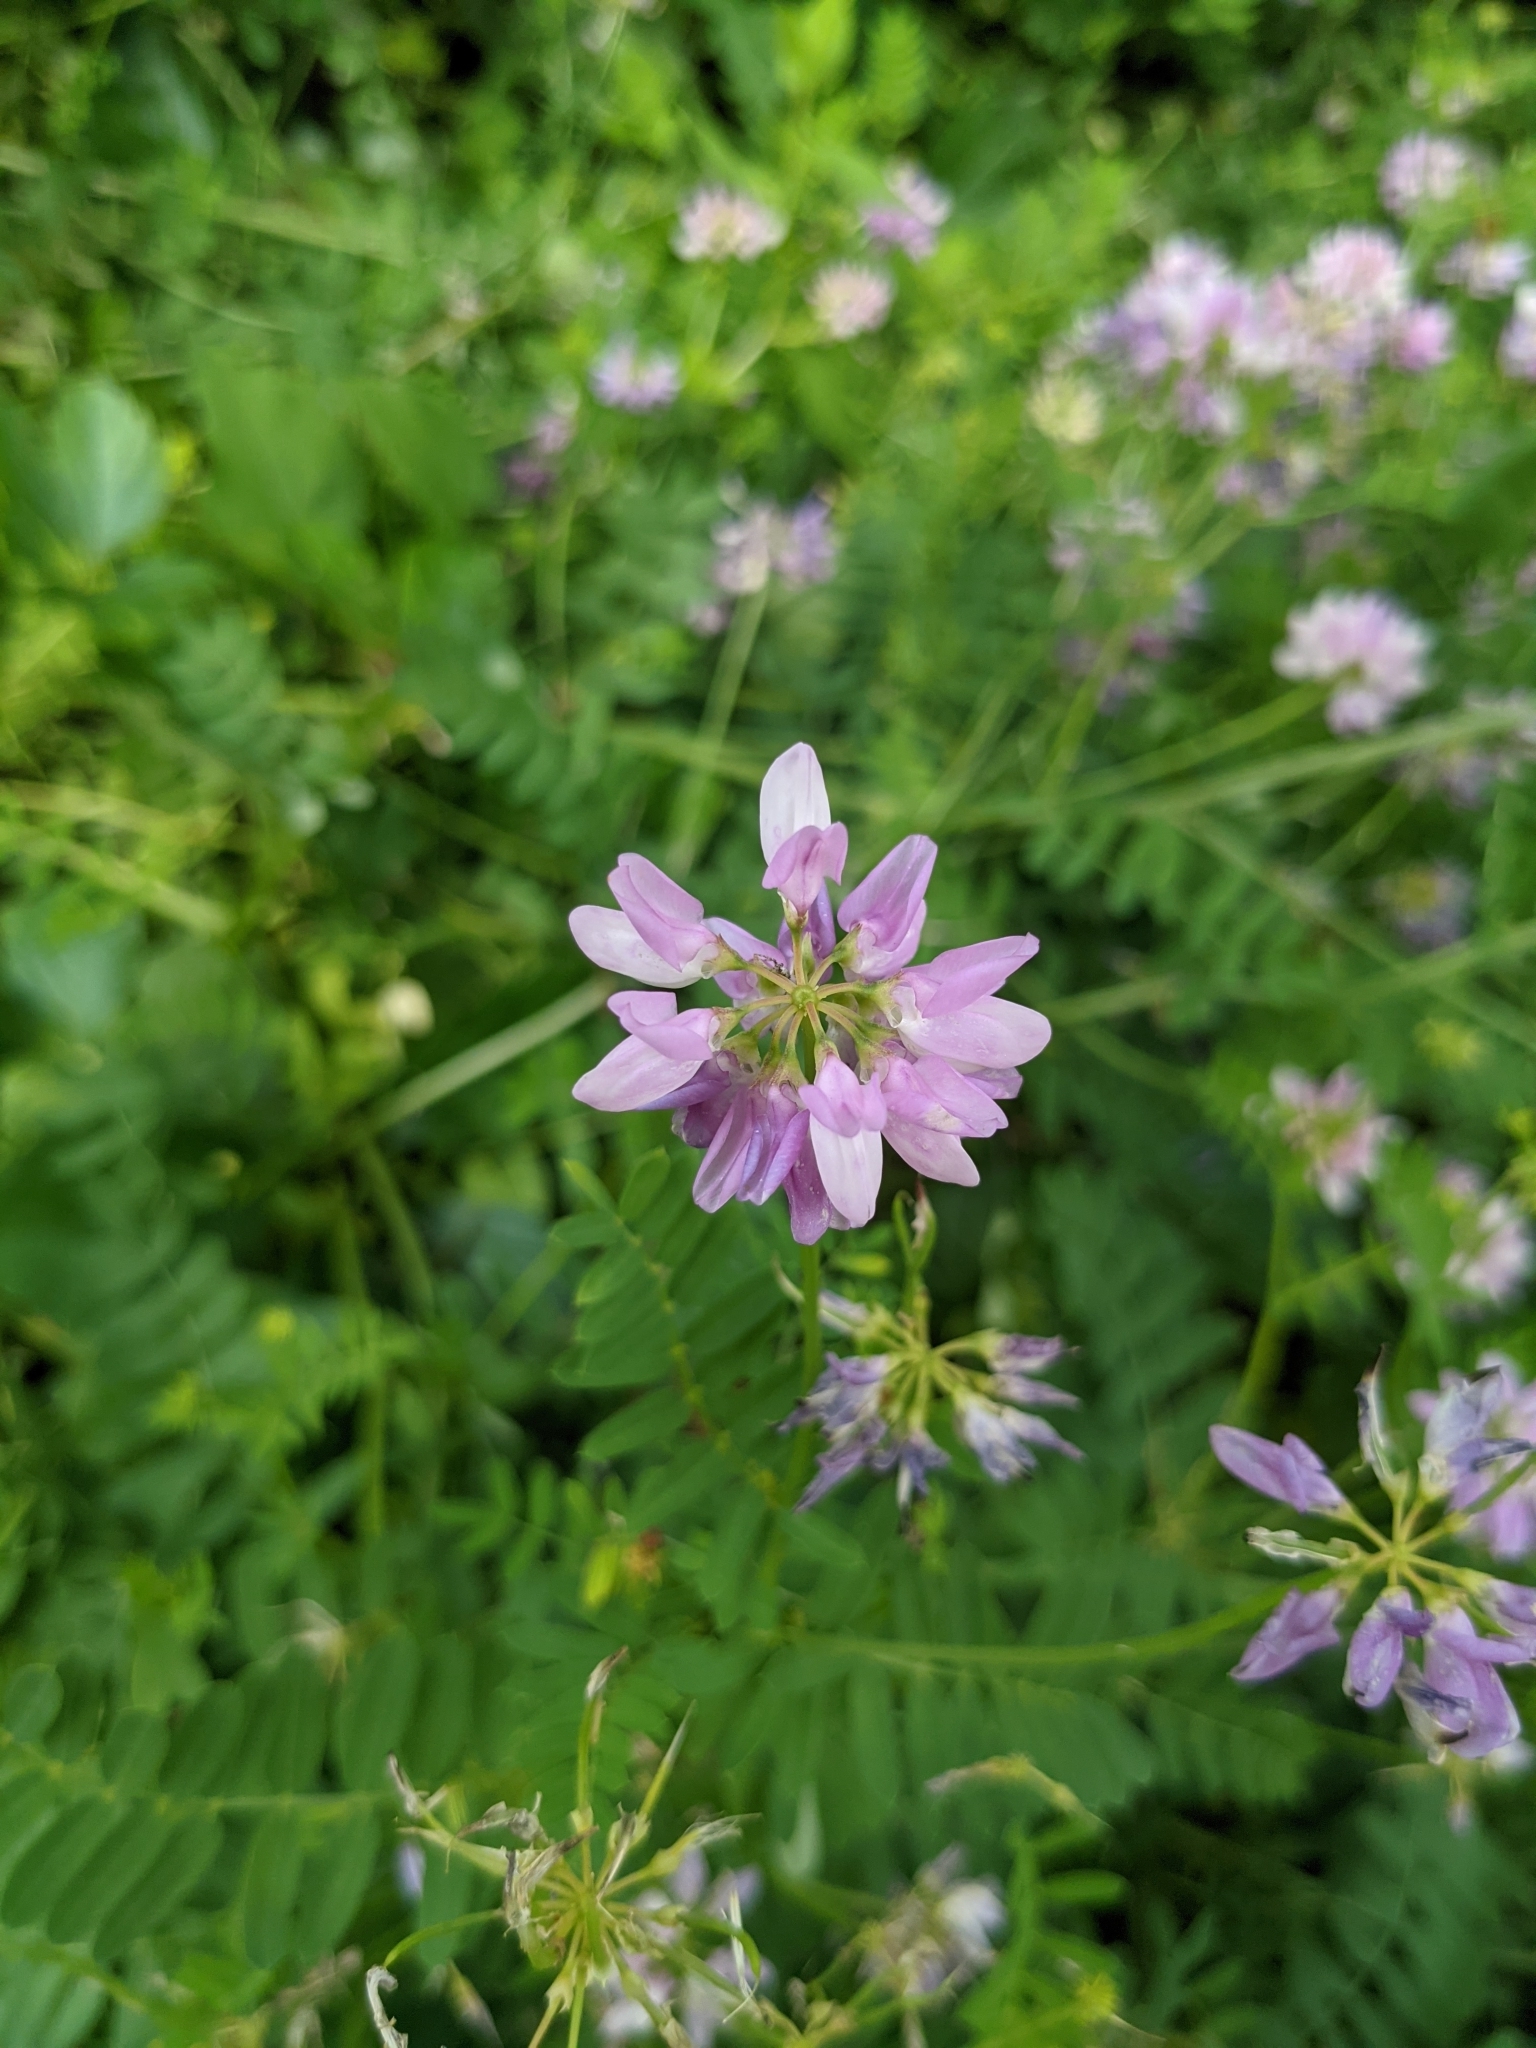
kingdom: Plantae
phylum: Tracheophyta
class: Magnoliopsida
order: Fabales
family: Fabaceae
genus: Coronilla
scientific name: Coronilla varia
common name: Crownvetch
